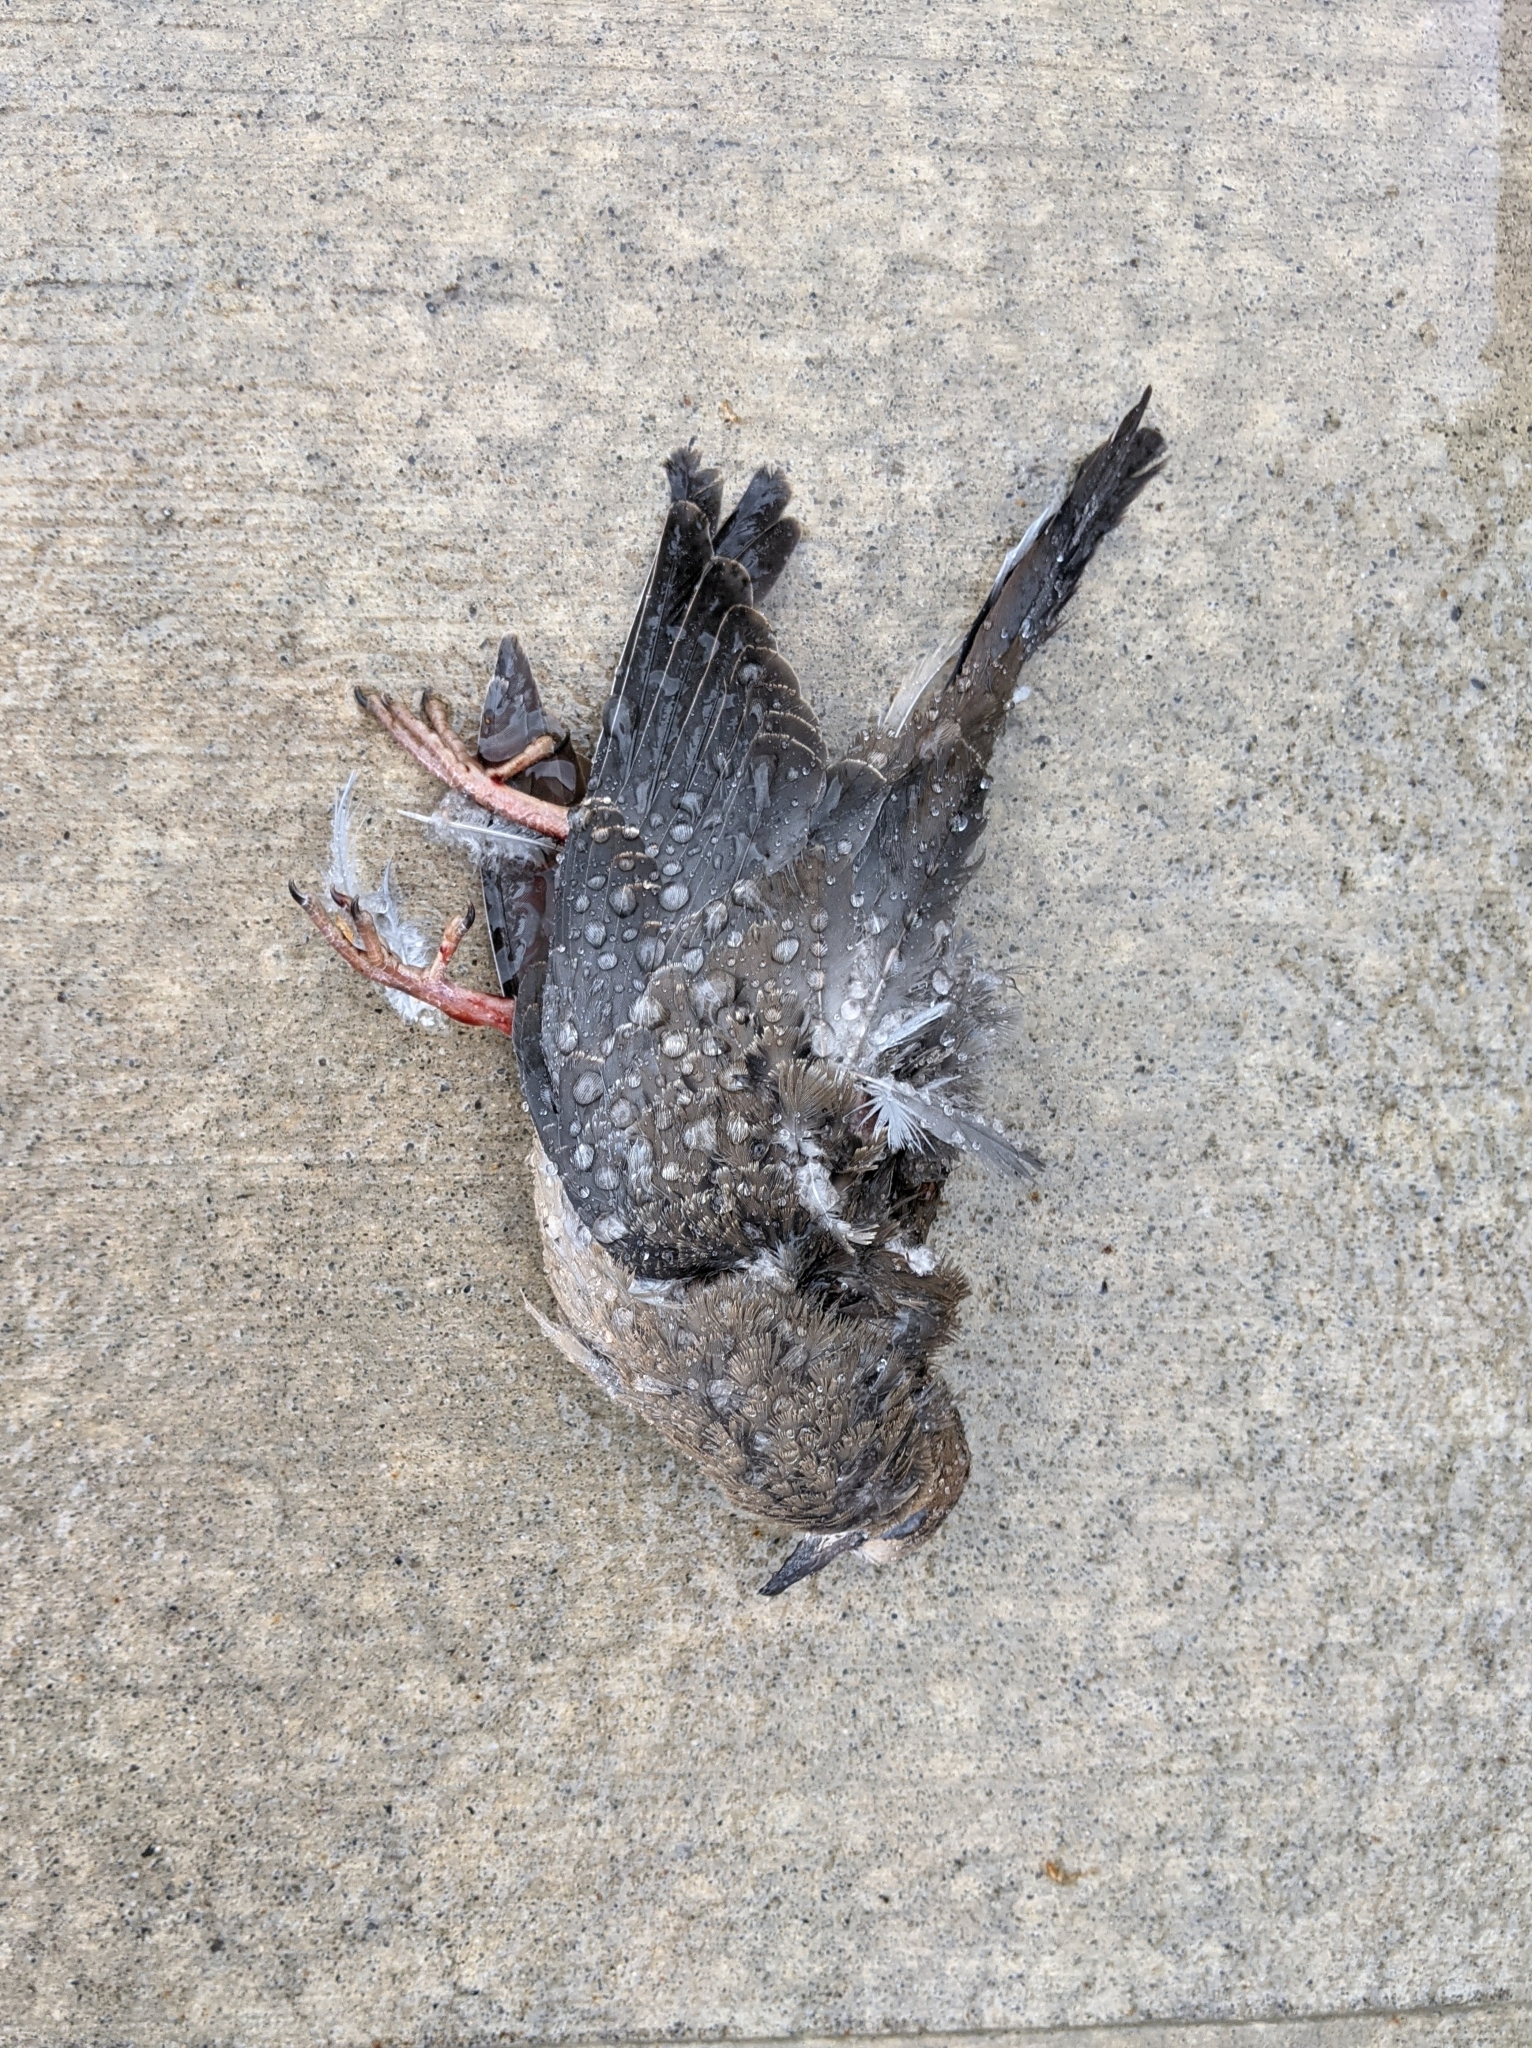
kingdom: Animalia
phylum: Chordata
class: Aves
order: Columbiformes
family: Columbidae
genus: Zenaida
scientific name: Zenaida macroura
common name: Mourning dove
